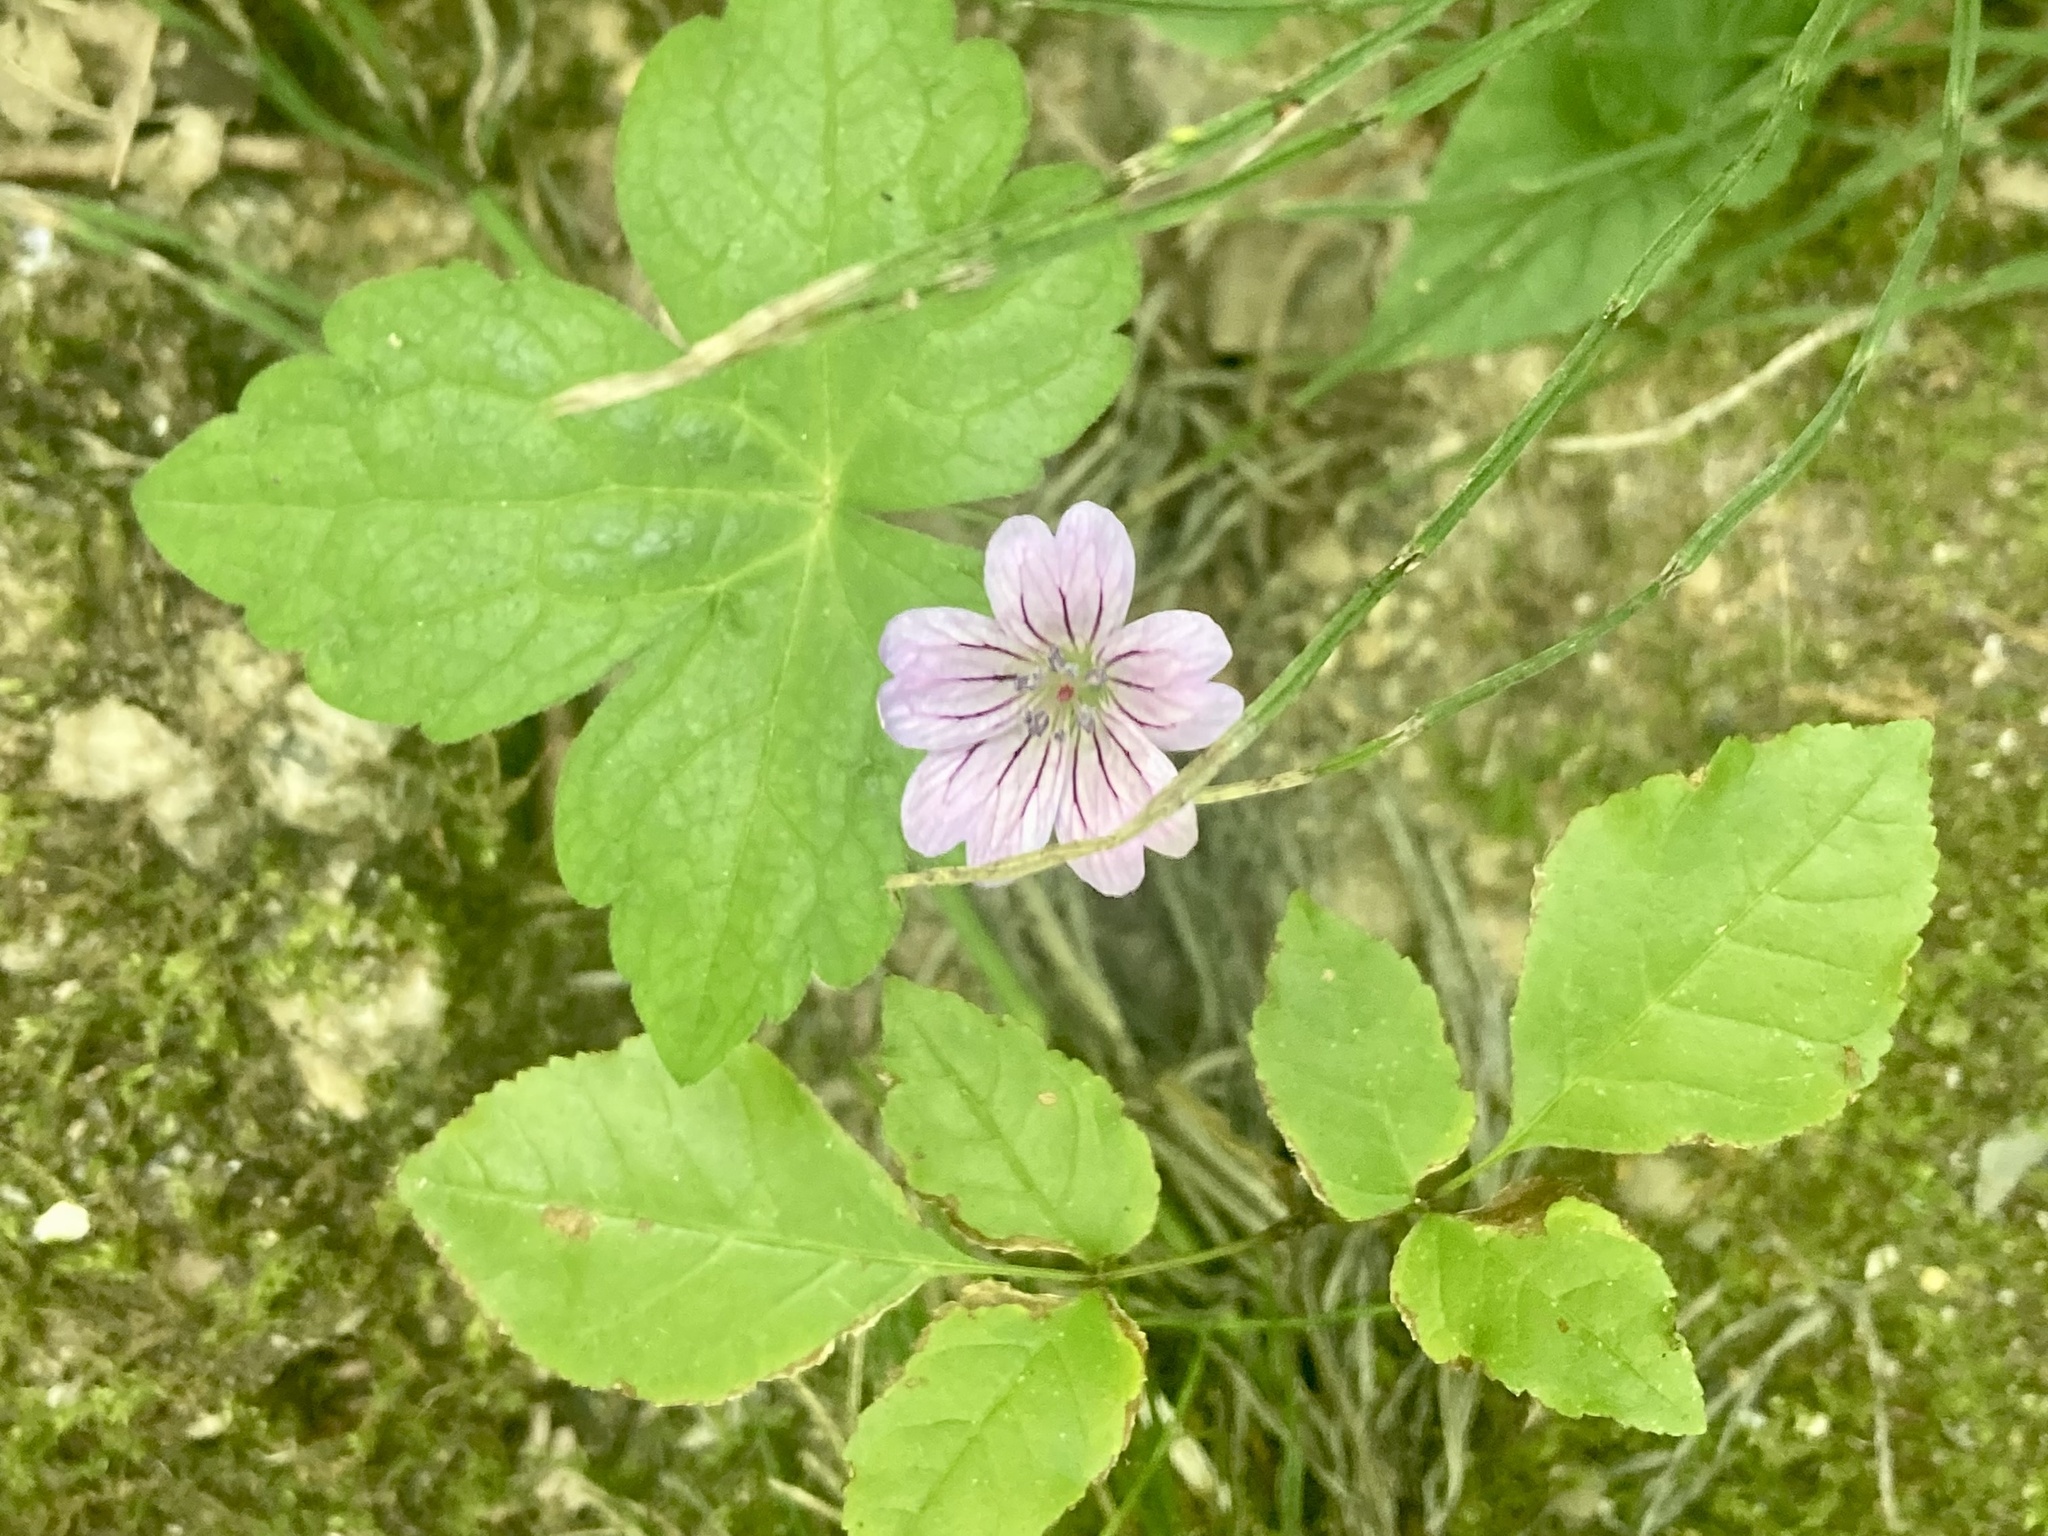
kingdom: Plantae
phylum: Tracheophyta
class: Magnoliopsida
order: Geraniales
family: Geraniaceae
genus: Geranium
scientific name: Geranium nodosum
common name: Knotted crane's-bill
